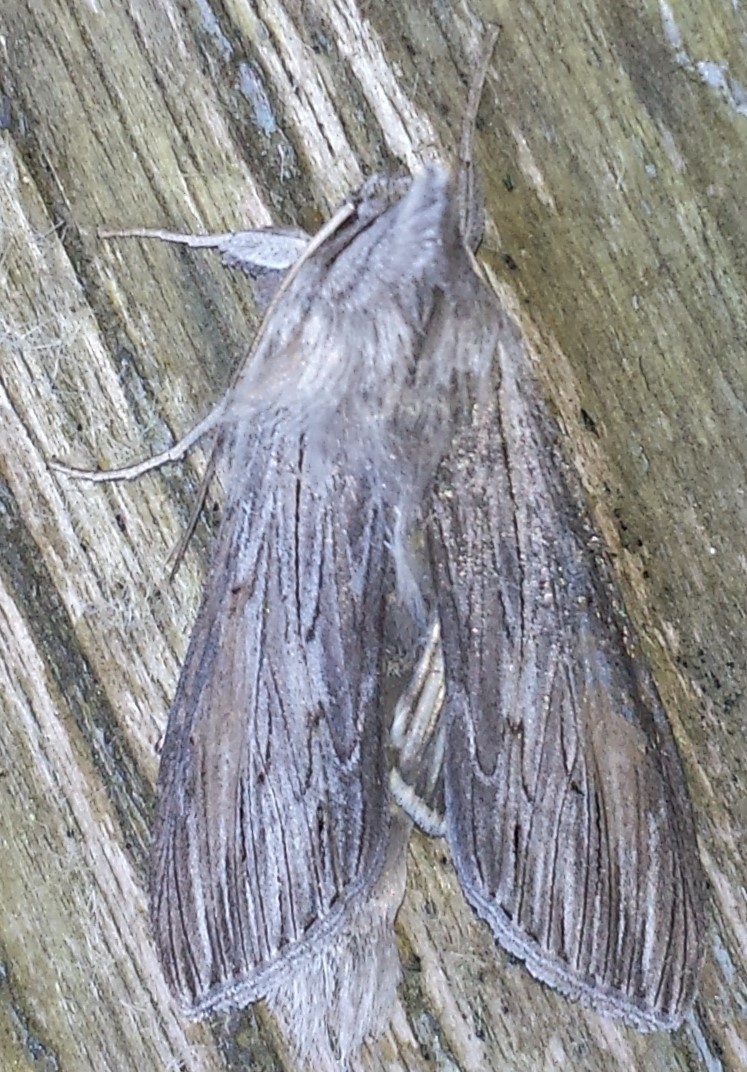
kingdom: Animalia
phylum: Arthropoda
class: Insecta
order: Lepidoptera
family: Noctuidae
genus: Cucullia
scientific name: Cucullia intermedia
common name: Goldenrod cutworm
